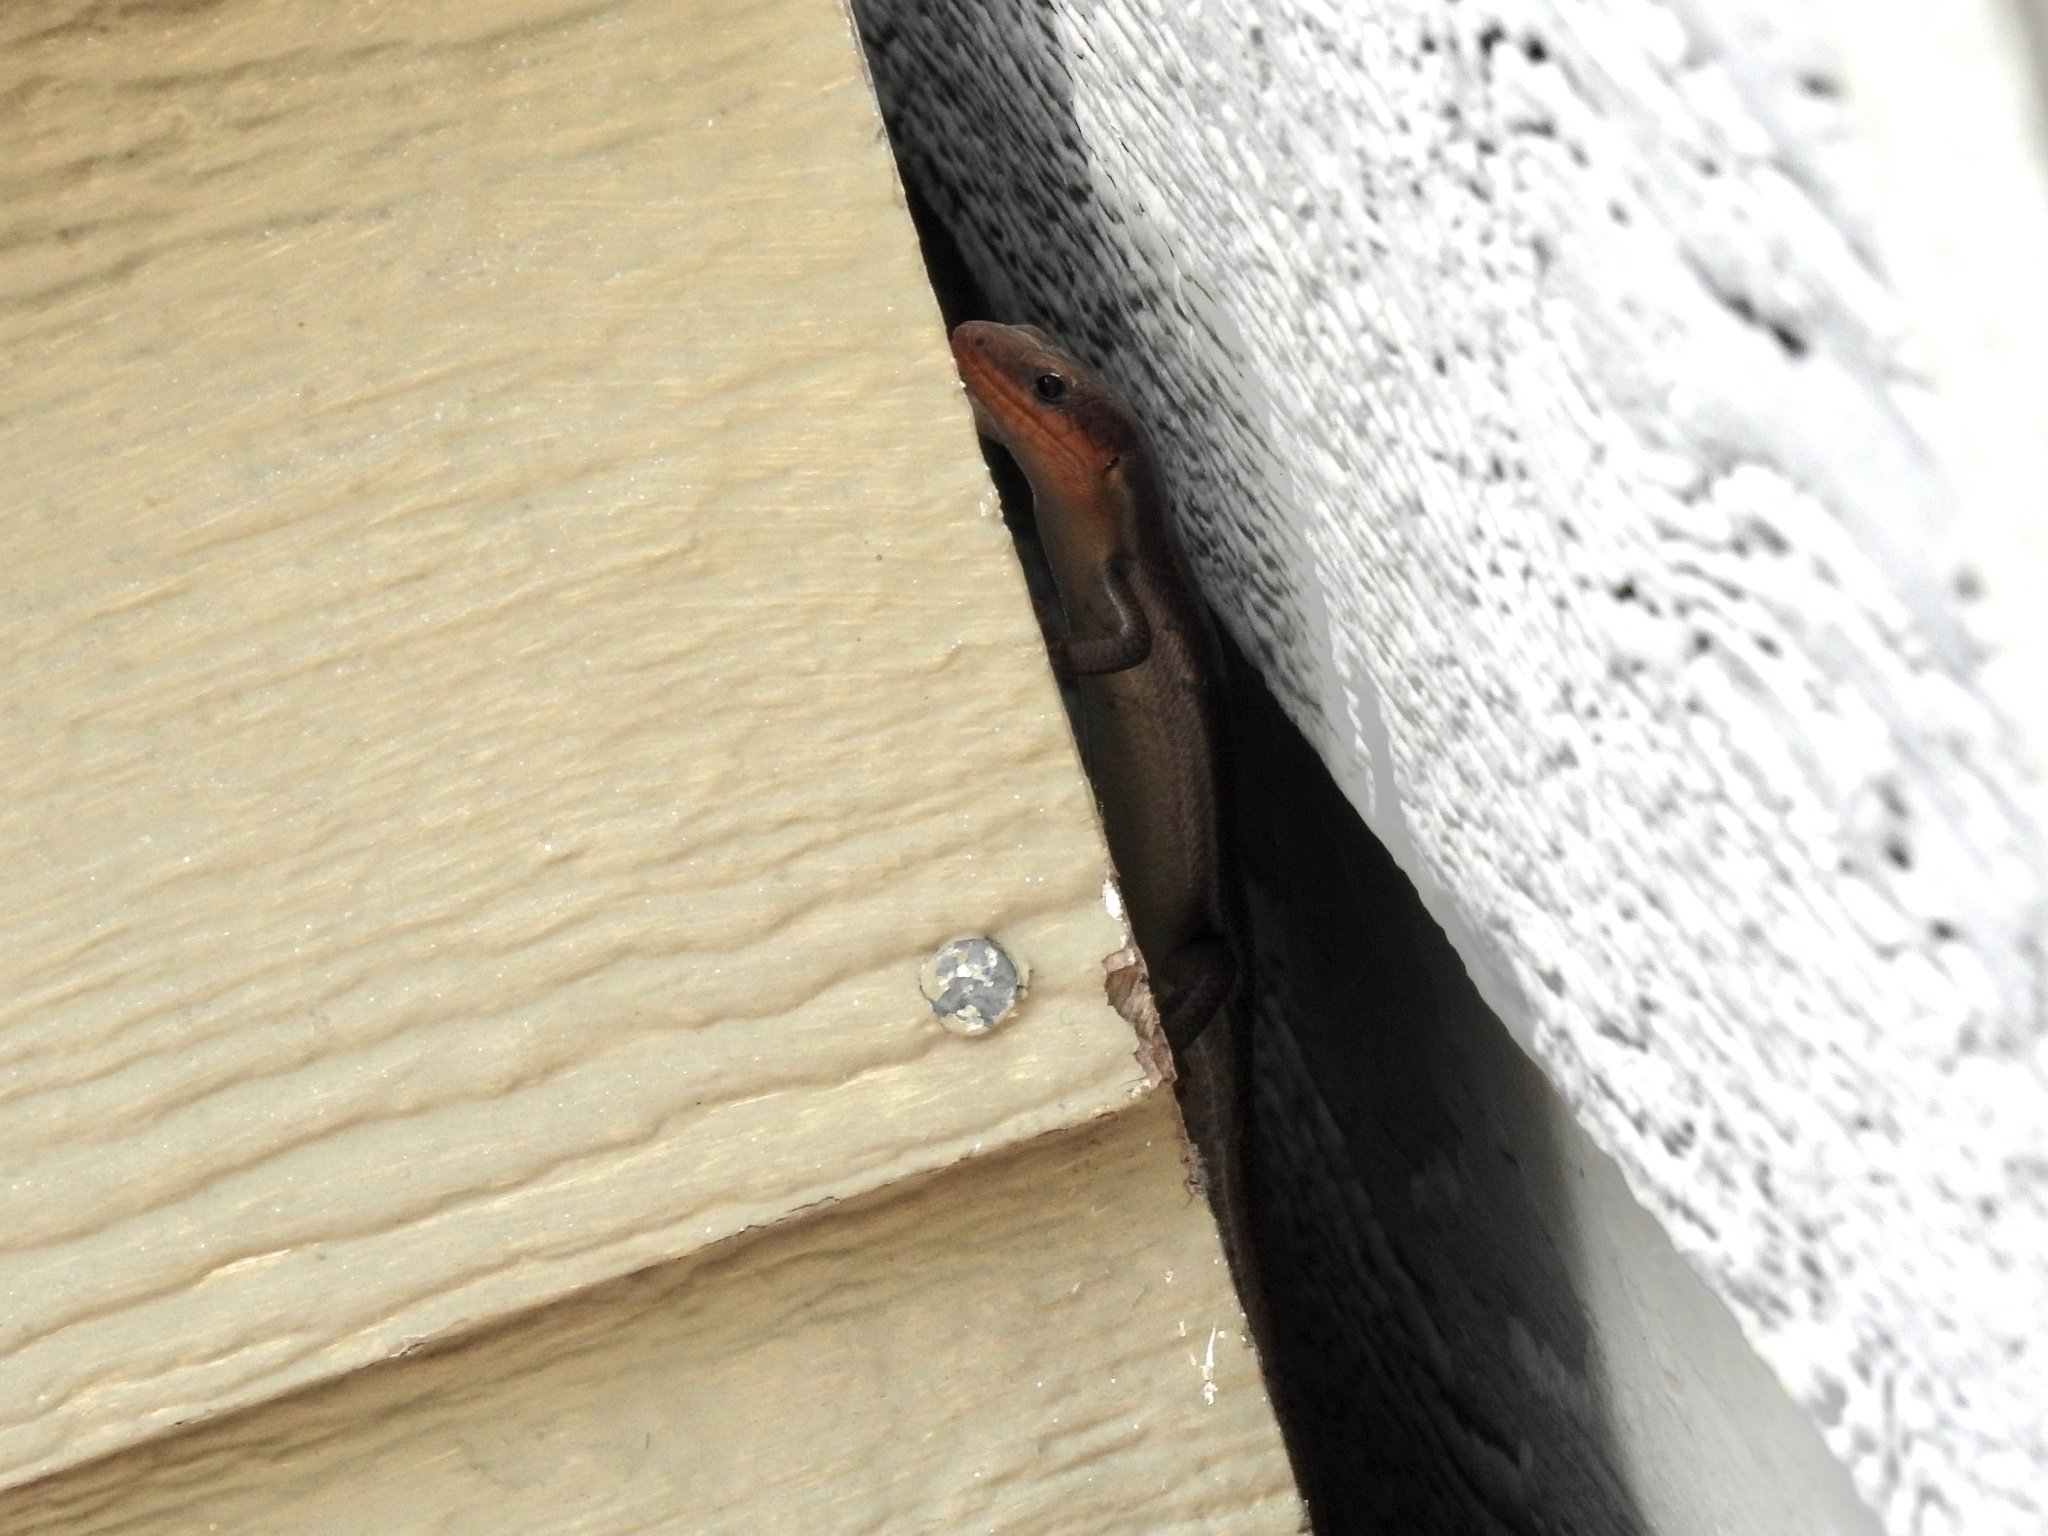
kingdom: Animalia
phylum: Chordata
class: Squamata
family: Scincidae
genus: Plestiodon
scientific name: Plestiodon fasciatus
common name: Five-lined skink
